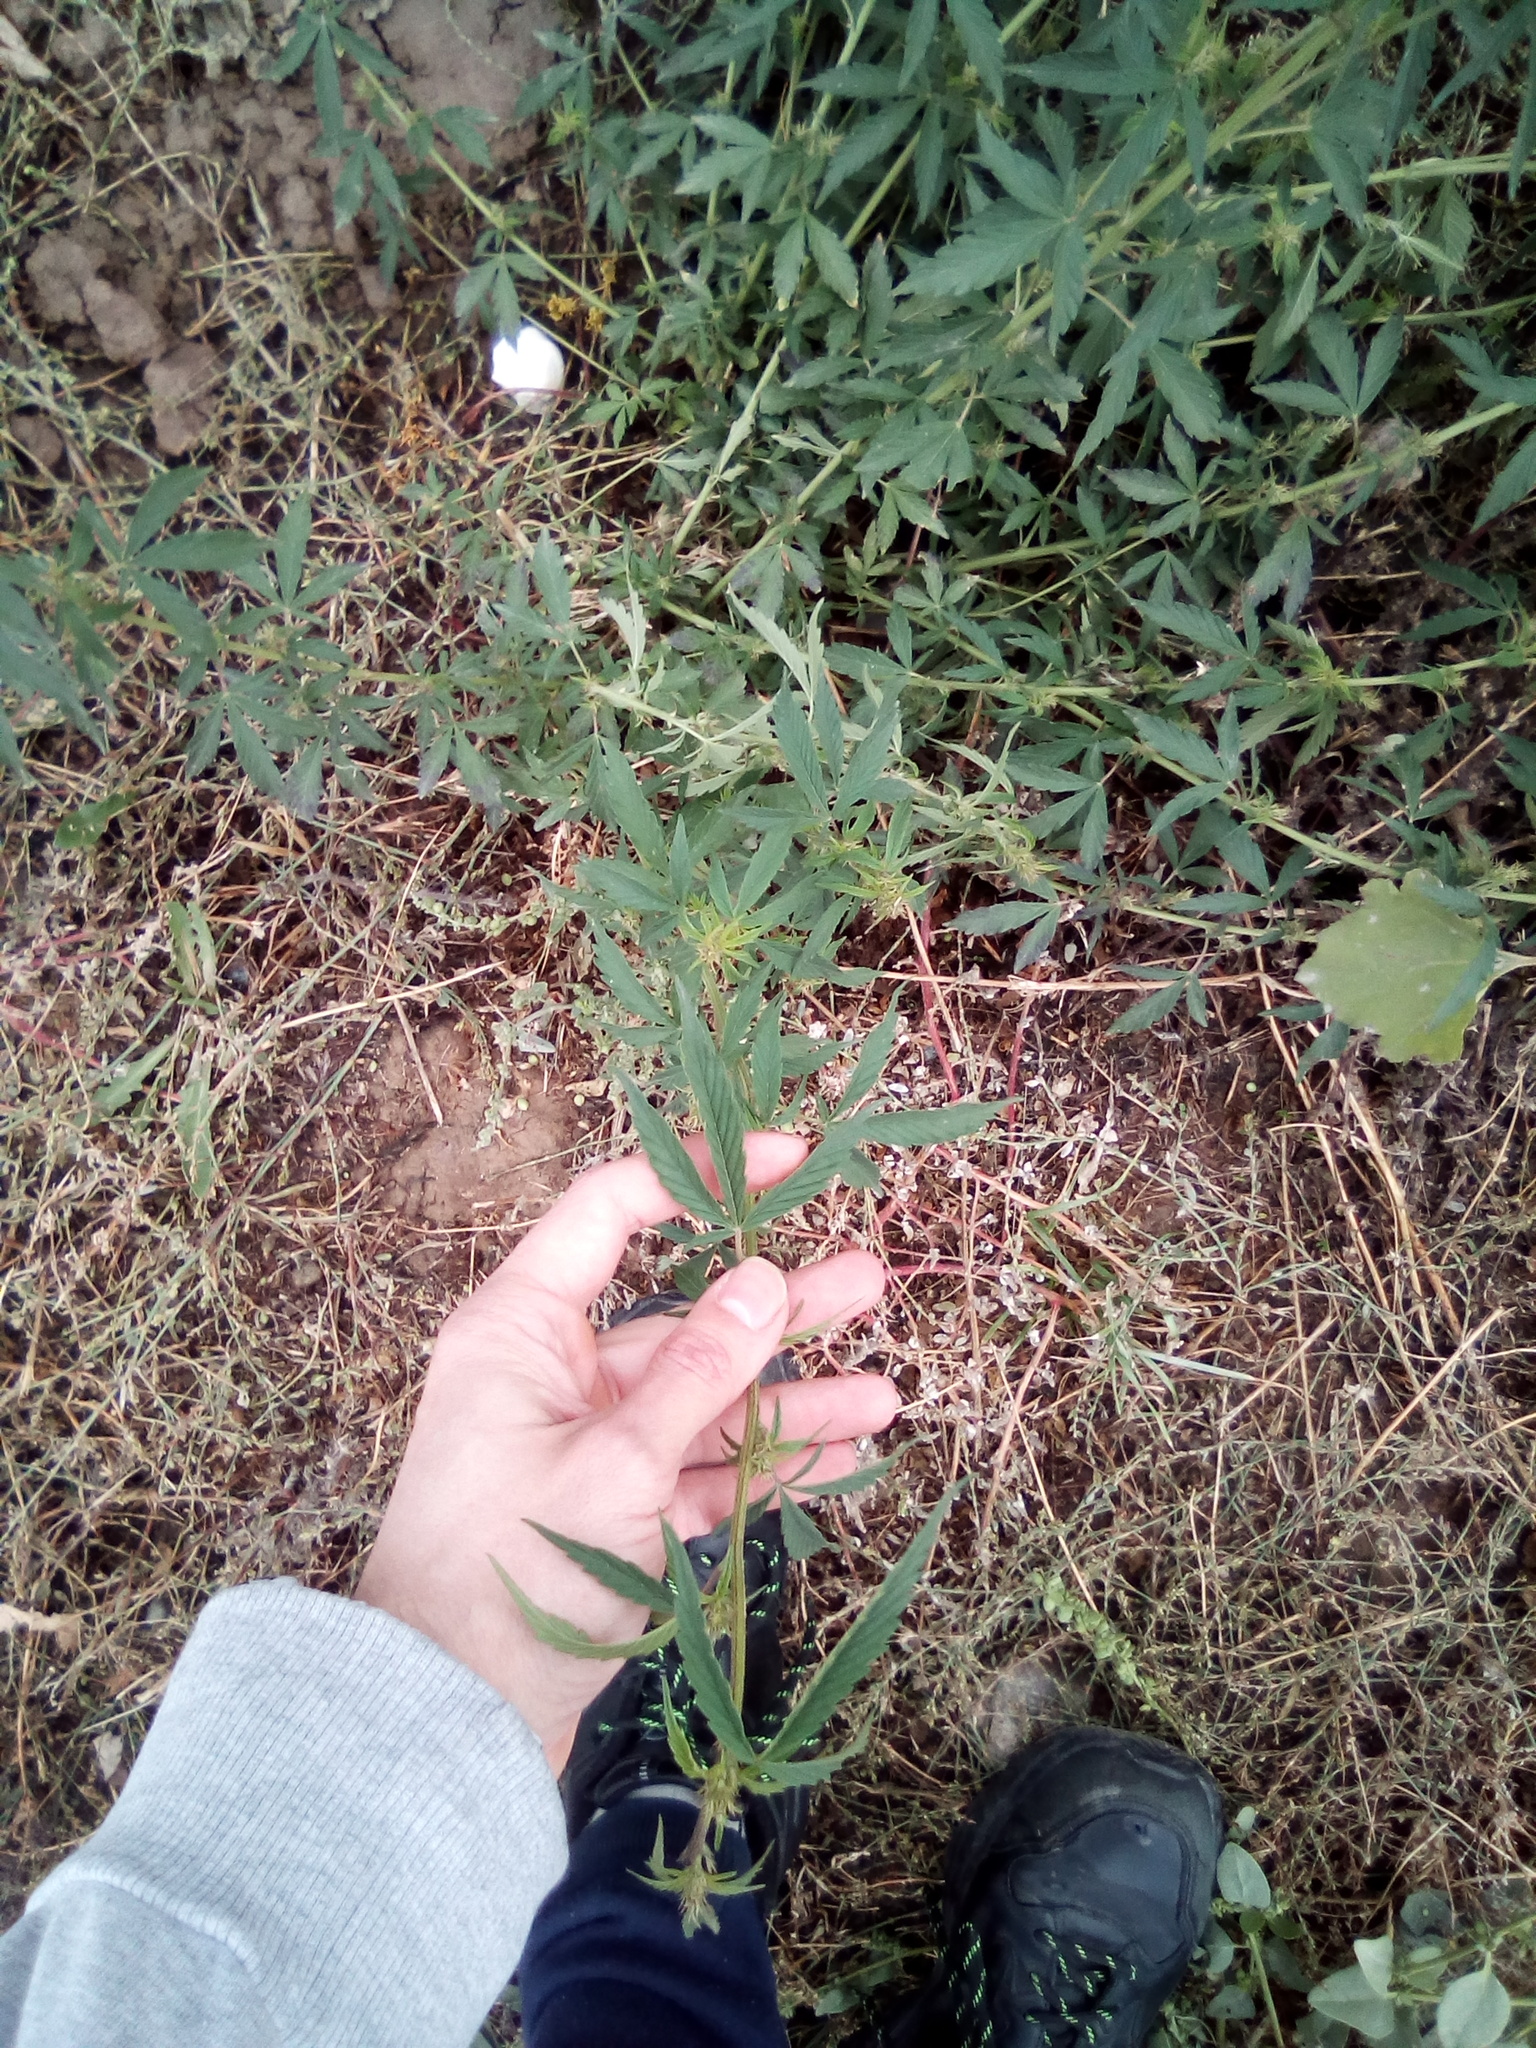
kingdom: Plantae
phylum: Tracheophyta
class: Magnoliopsida
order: Rosales
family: Cannabaceae
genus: Cannabis
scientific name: Cannabis sativa
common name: Hemp
